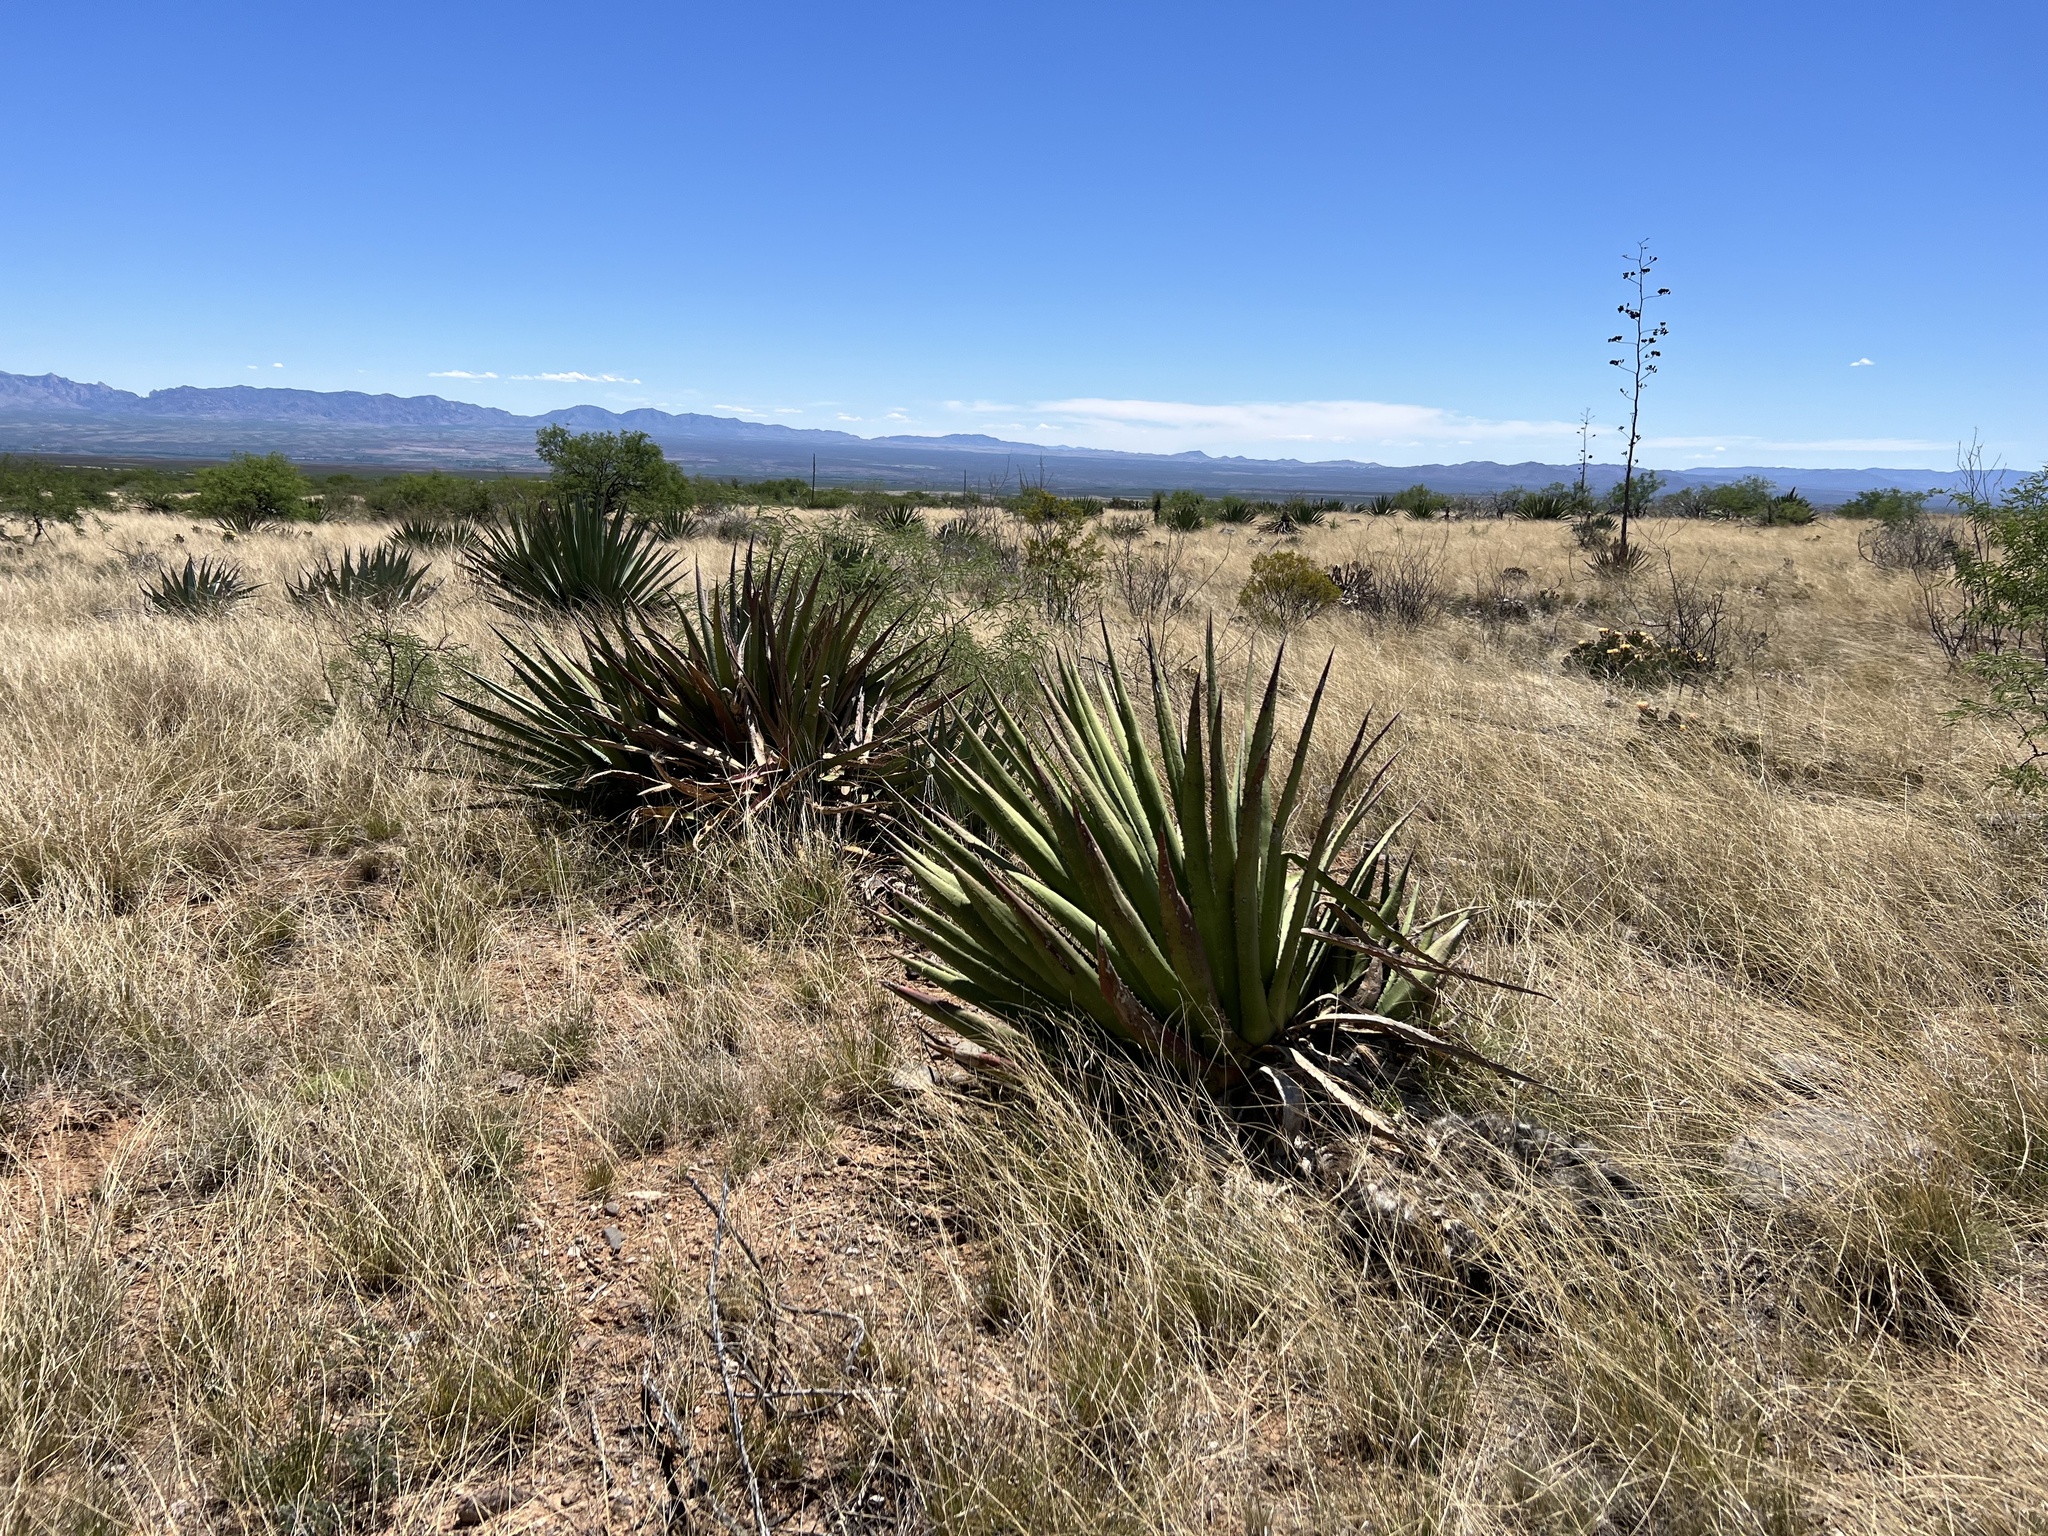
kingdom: Plantae
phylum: Tracheophyta
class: Liliopsida
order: Asparagales
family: Asparagaceae
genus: Agave
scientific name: Agave palmeri
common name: Palmer agave
